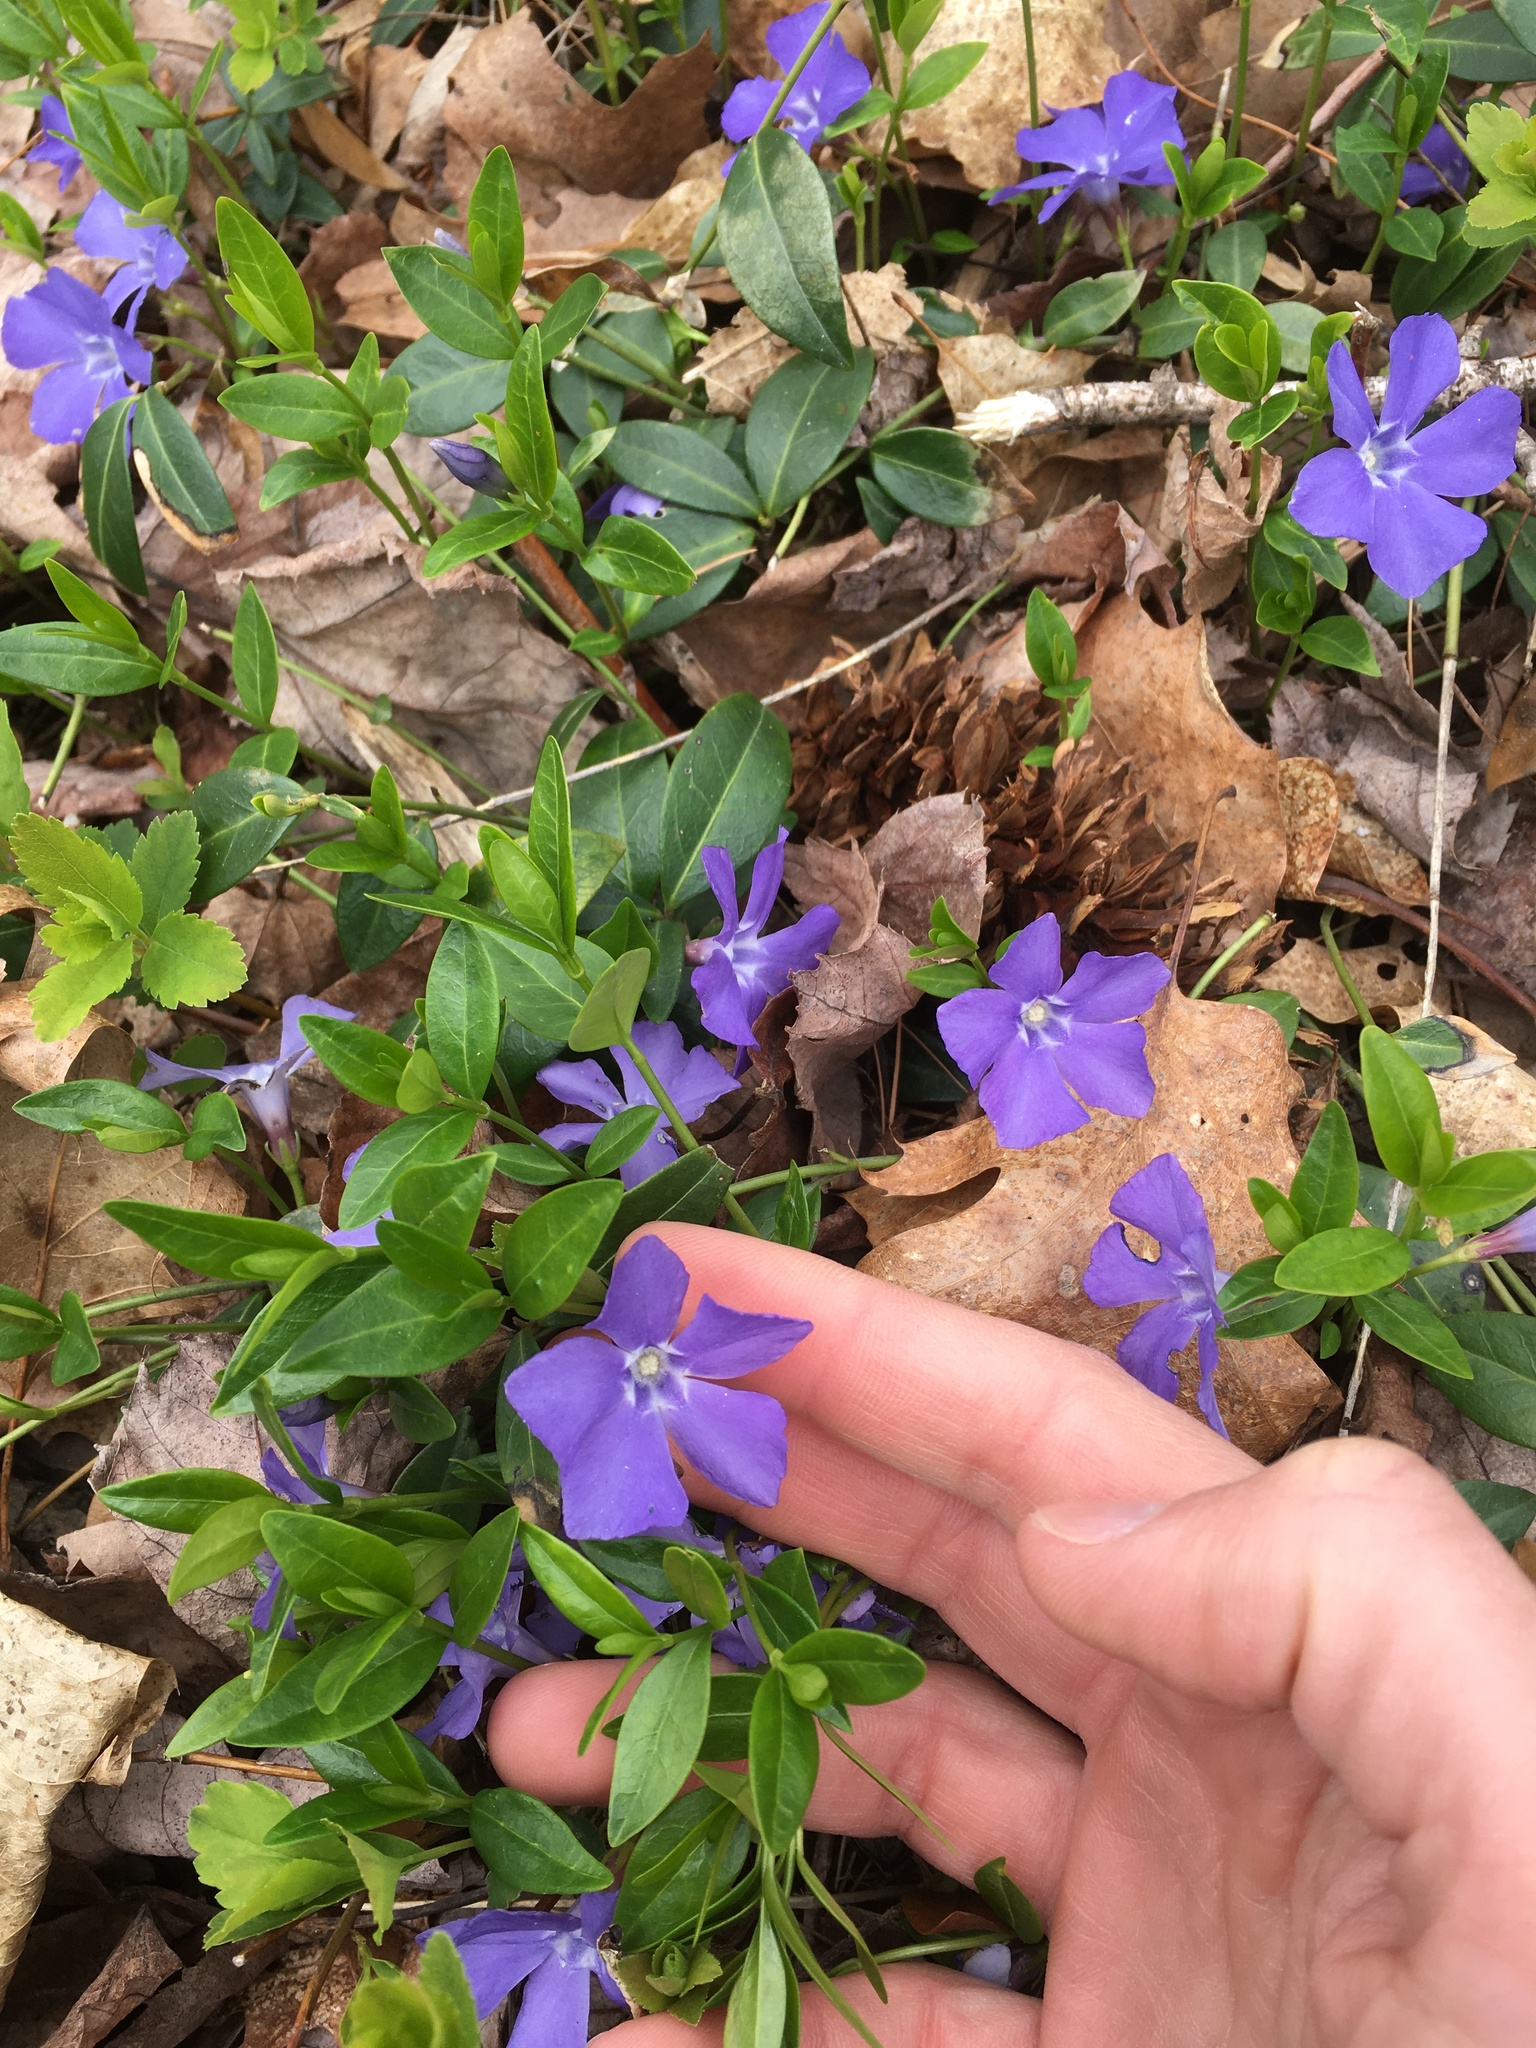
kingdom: Plantae
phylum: Tracheophyta
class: Magnoliopsida
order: Gentianales
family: Apocynaceae
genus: Vinca
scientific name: Vinca minor
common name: Lesser periwinkle
